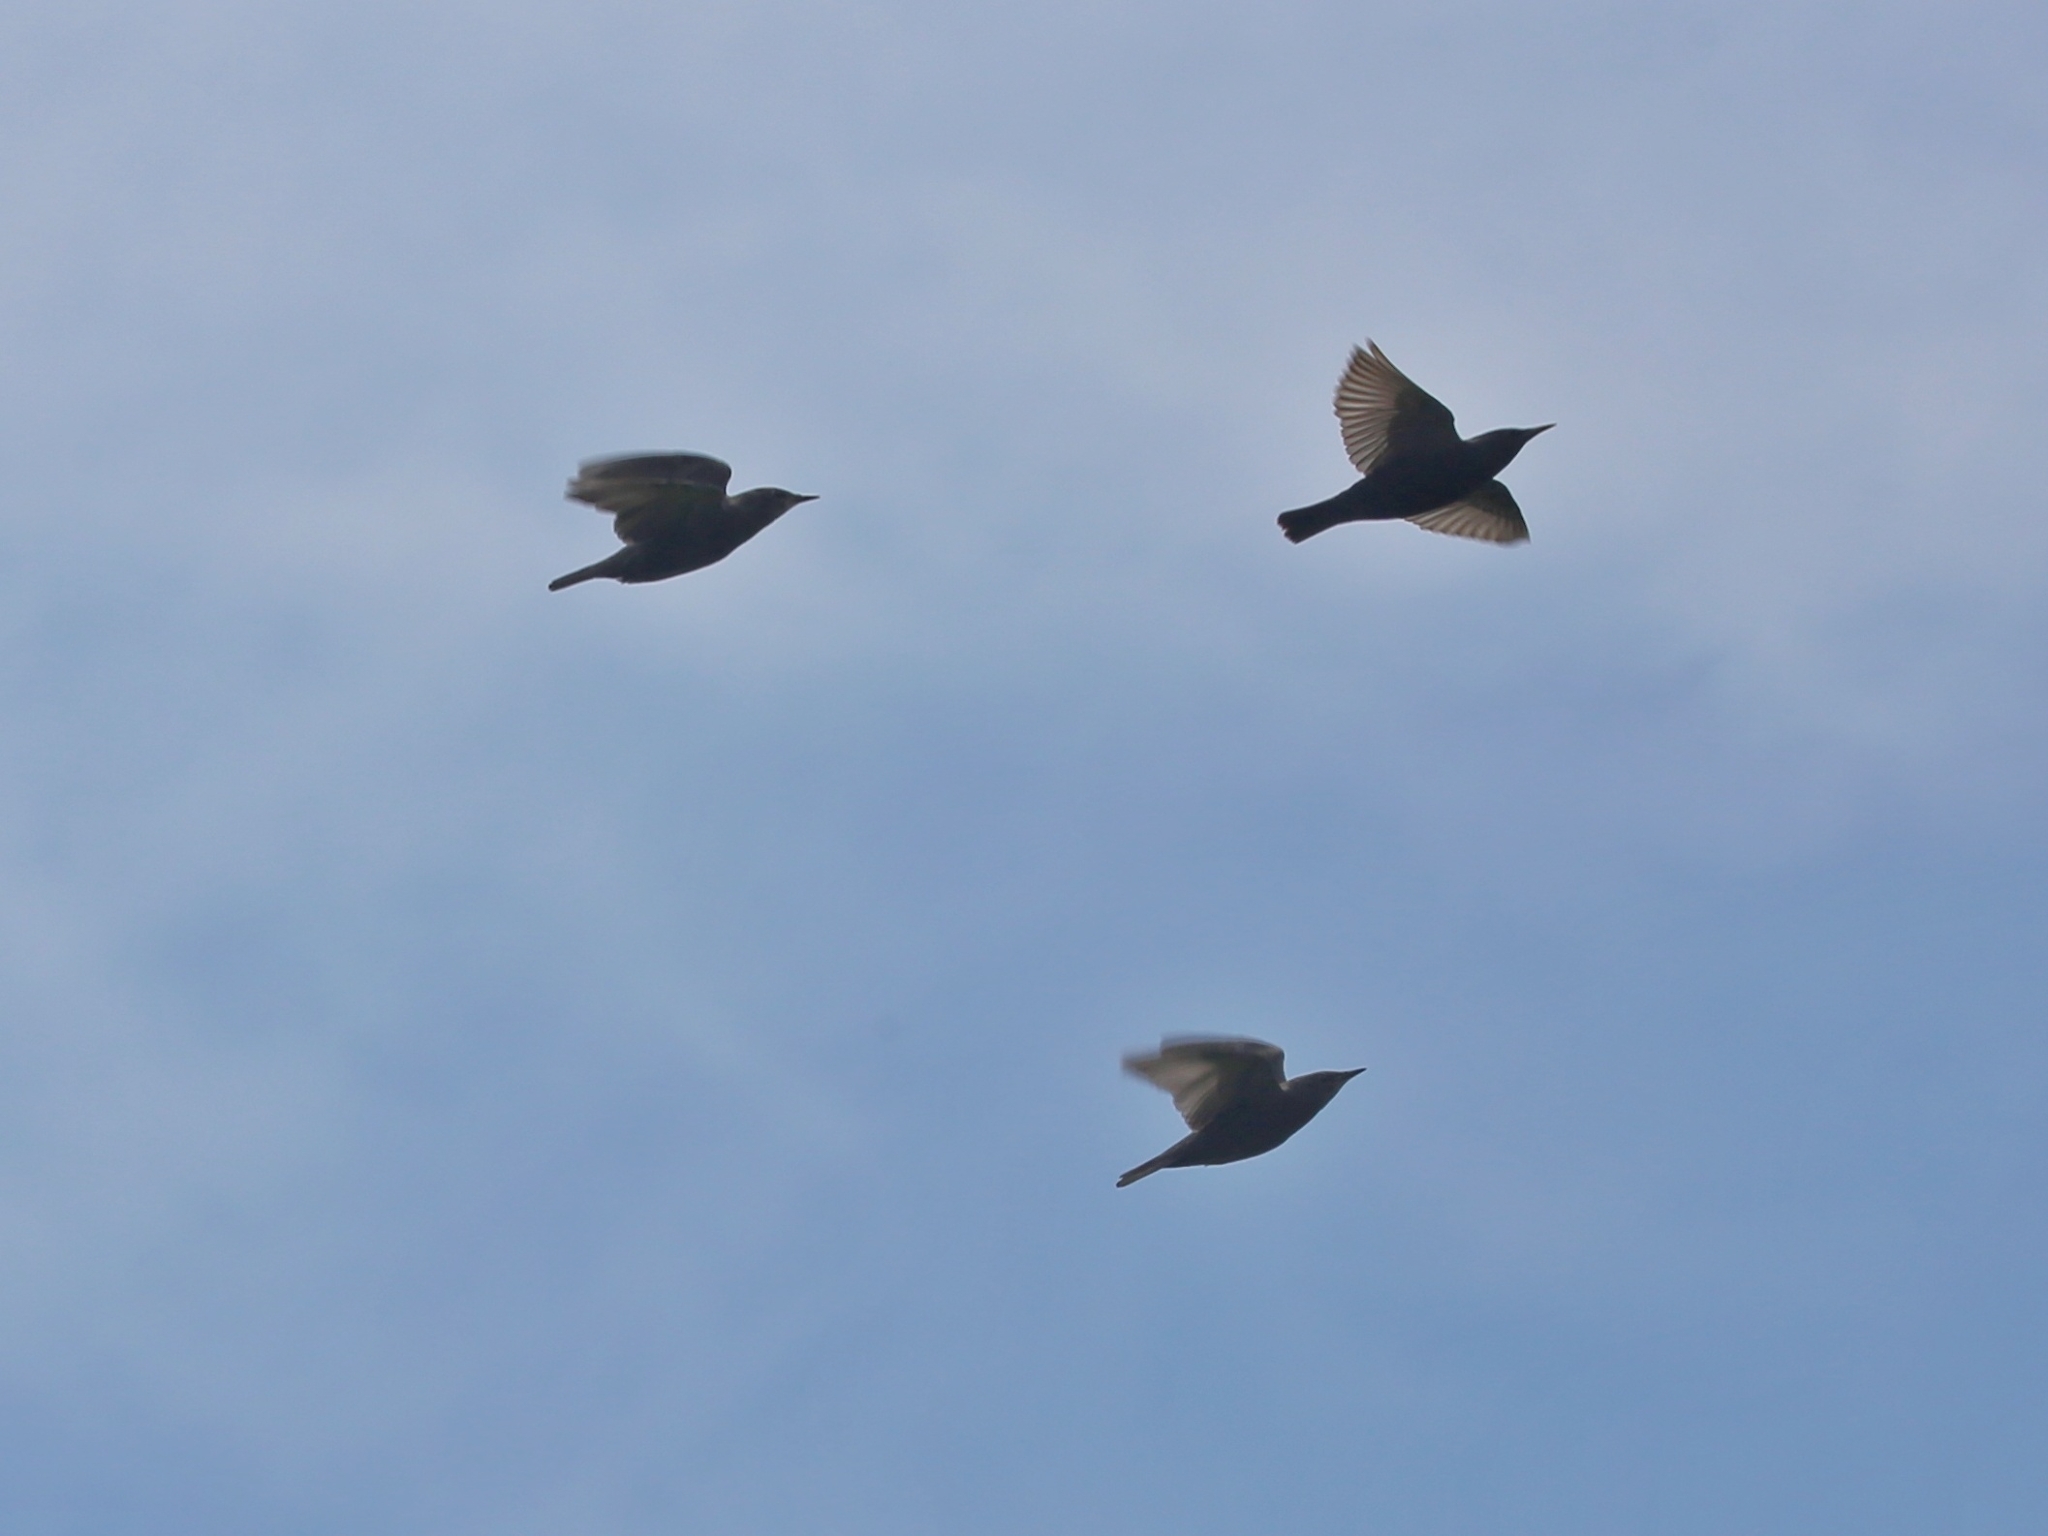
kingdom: Animalia
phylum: Chordata
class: Aves
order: Passeriformes
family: Sturnidae
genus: Sturnus
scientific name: Sturnus vulgaris
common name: Common starling
